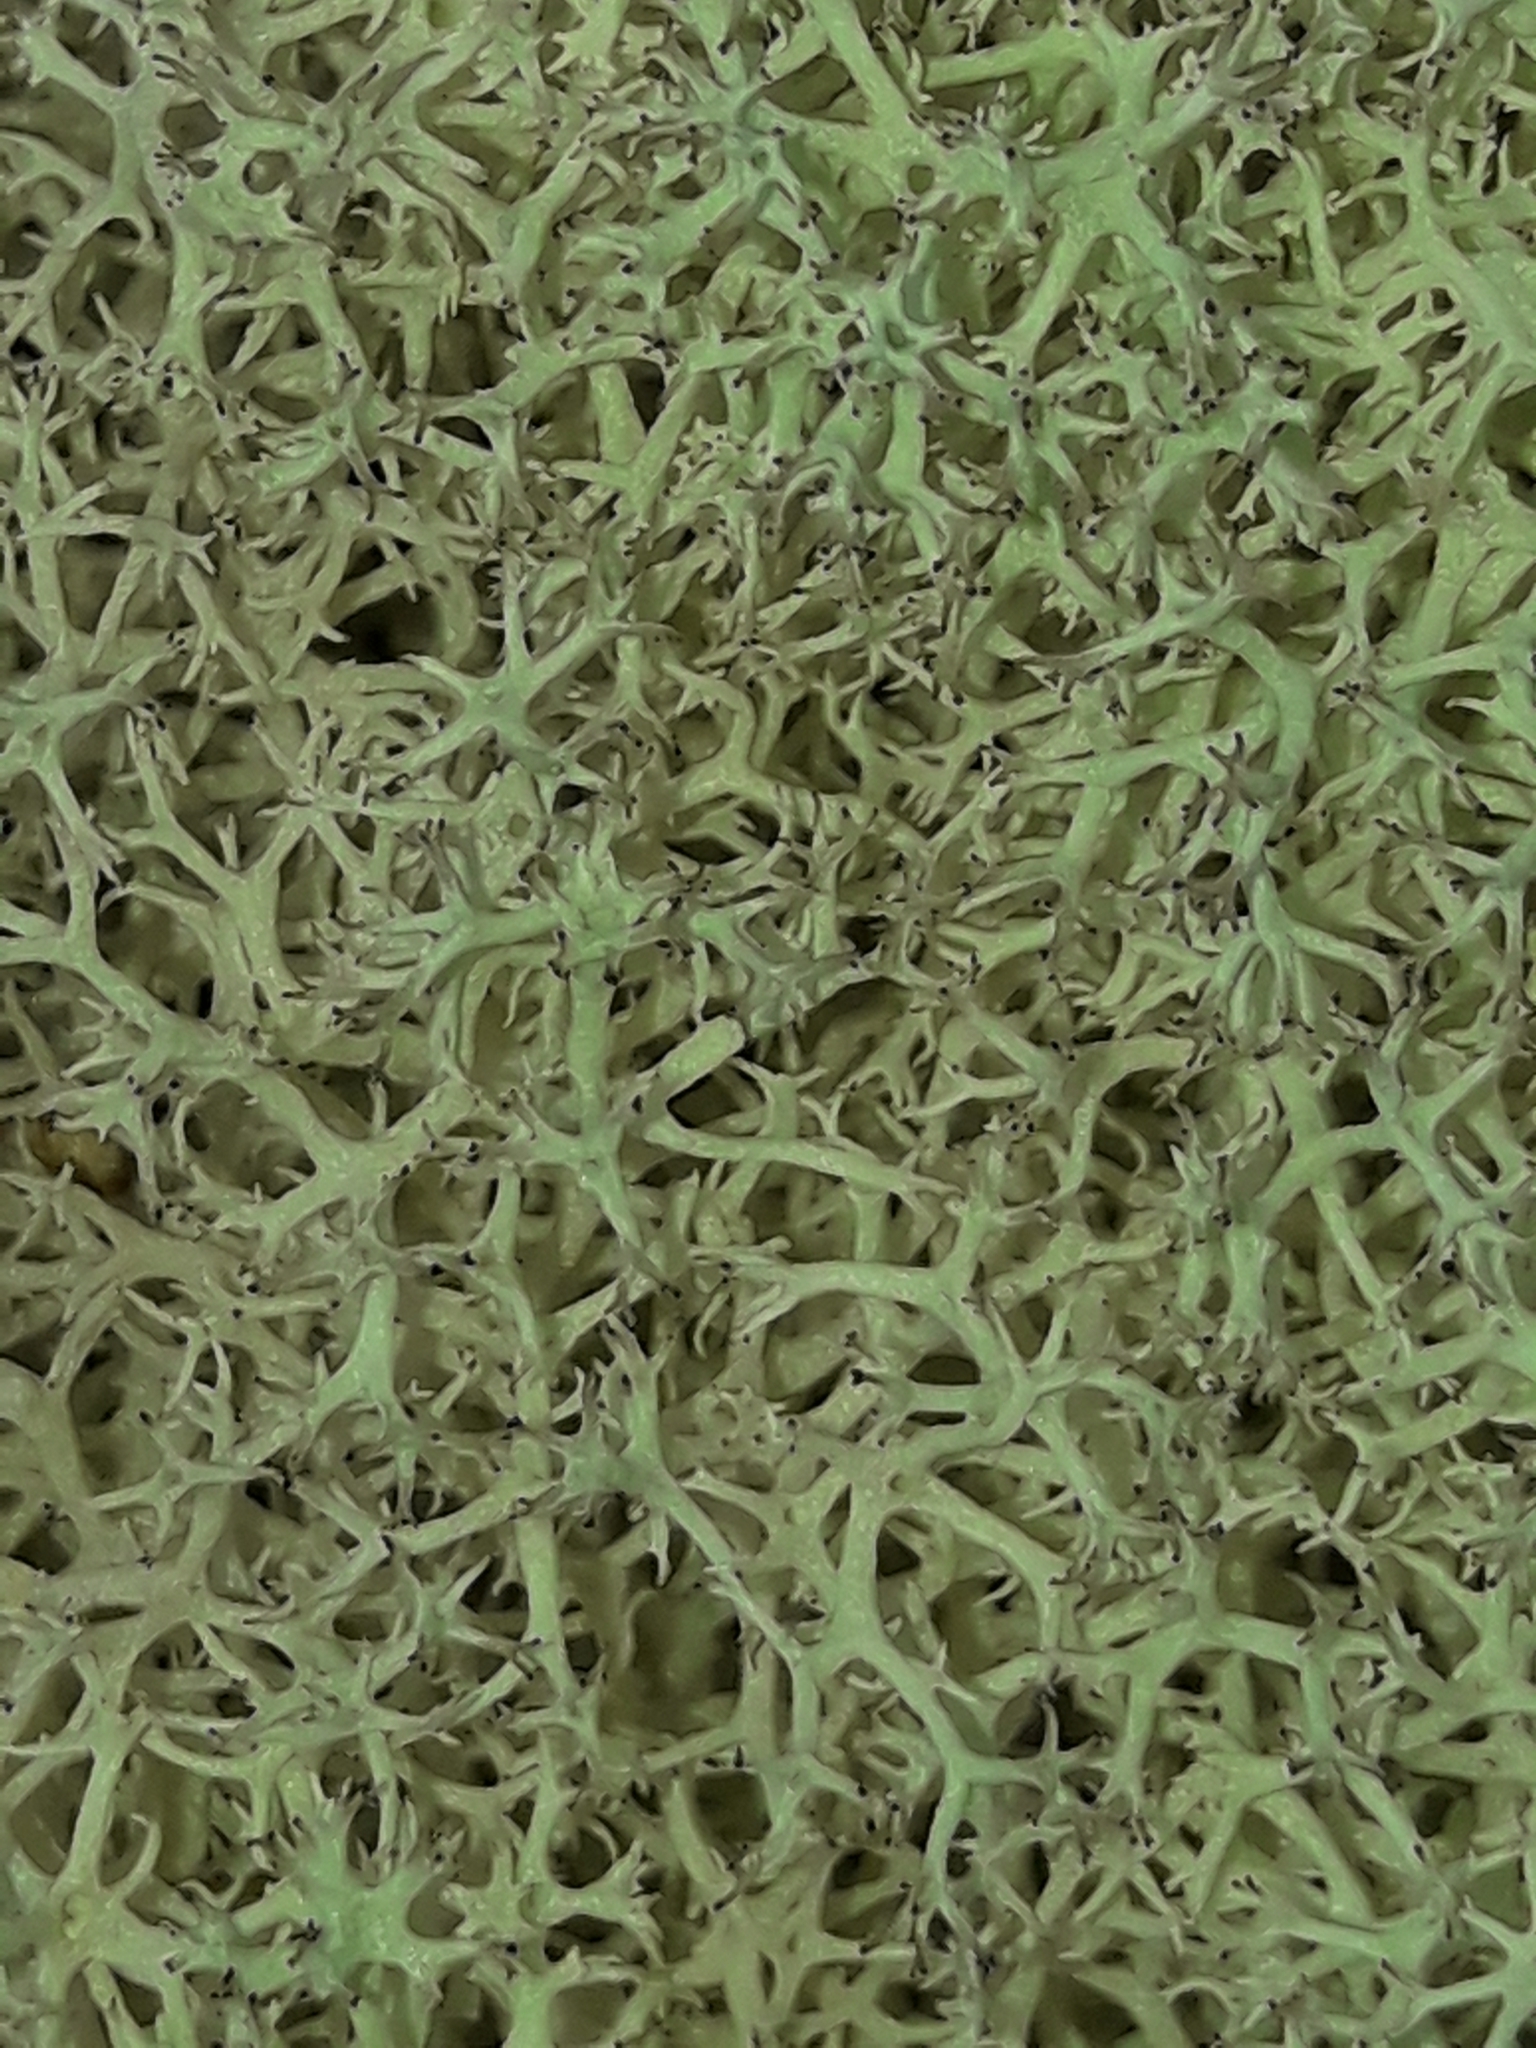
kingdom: Fungi
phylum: Ascomycota
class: Lecanoromycetes
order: Lecanorales
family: Cladoniaceae
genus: Cladonia
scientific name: Cladonia confusa
